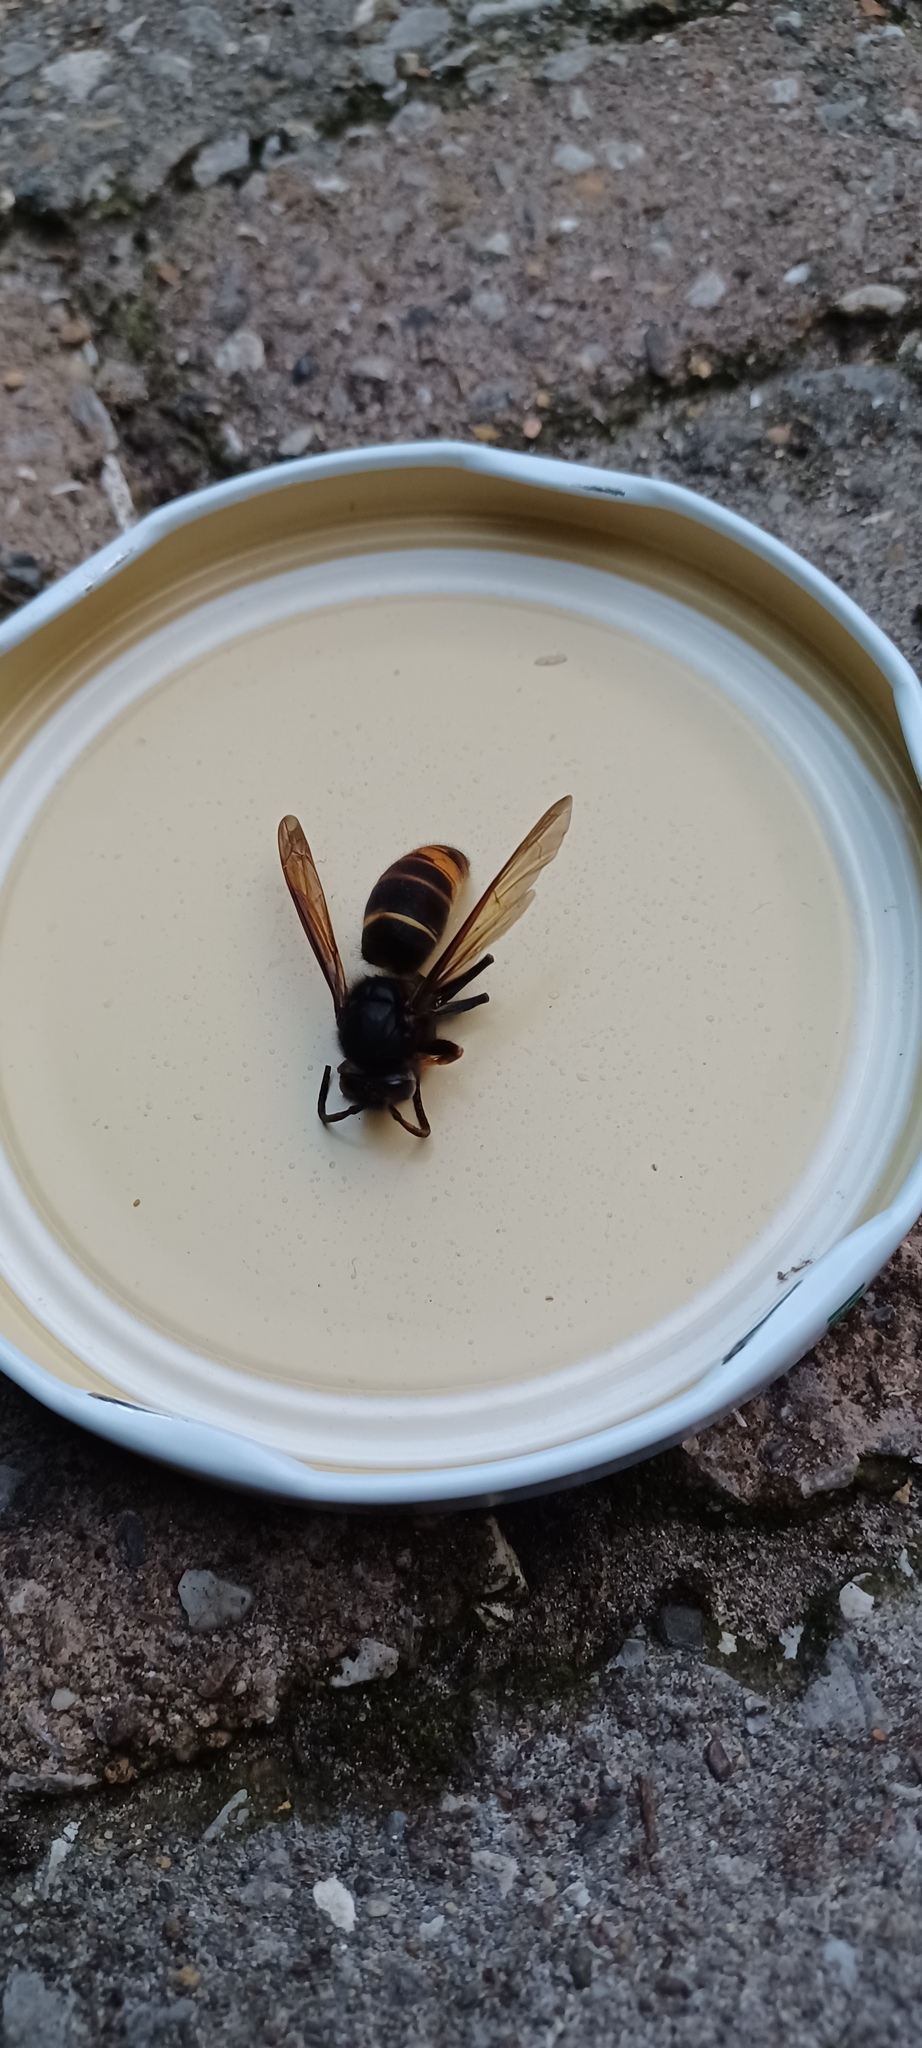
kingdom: Animalia
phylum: Arthropoda
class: Insecta
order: Hymenoptera
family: Vespidae
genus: Vespa
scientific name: Vespa velutina
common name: Asian hornet
